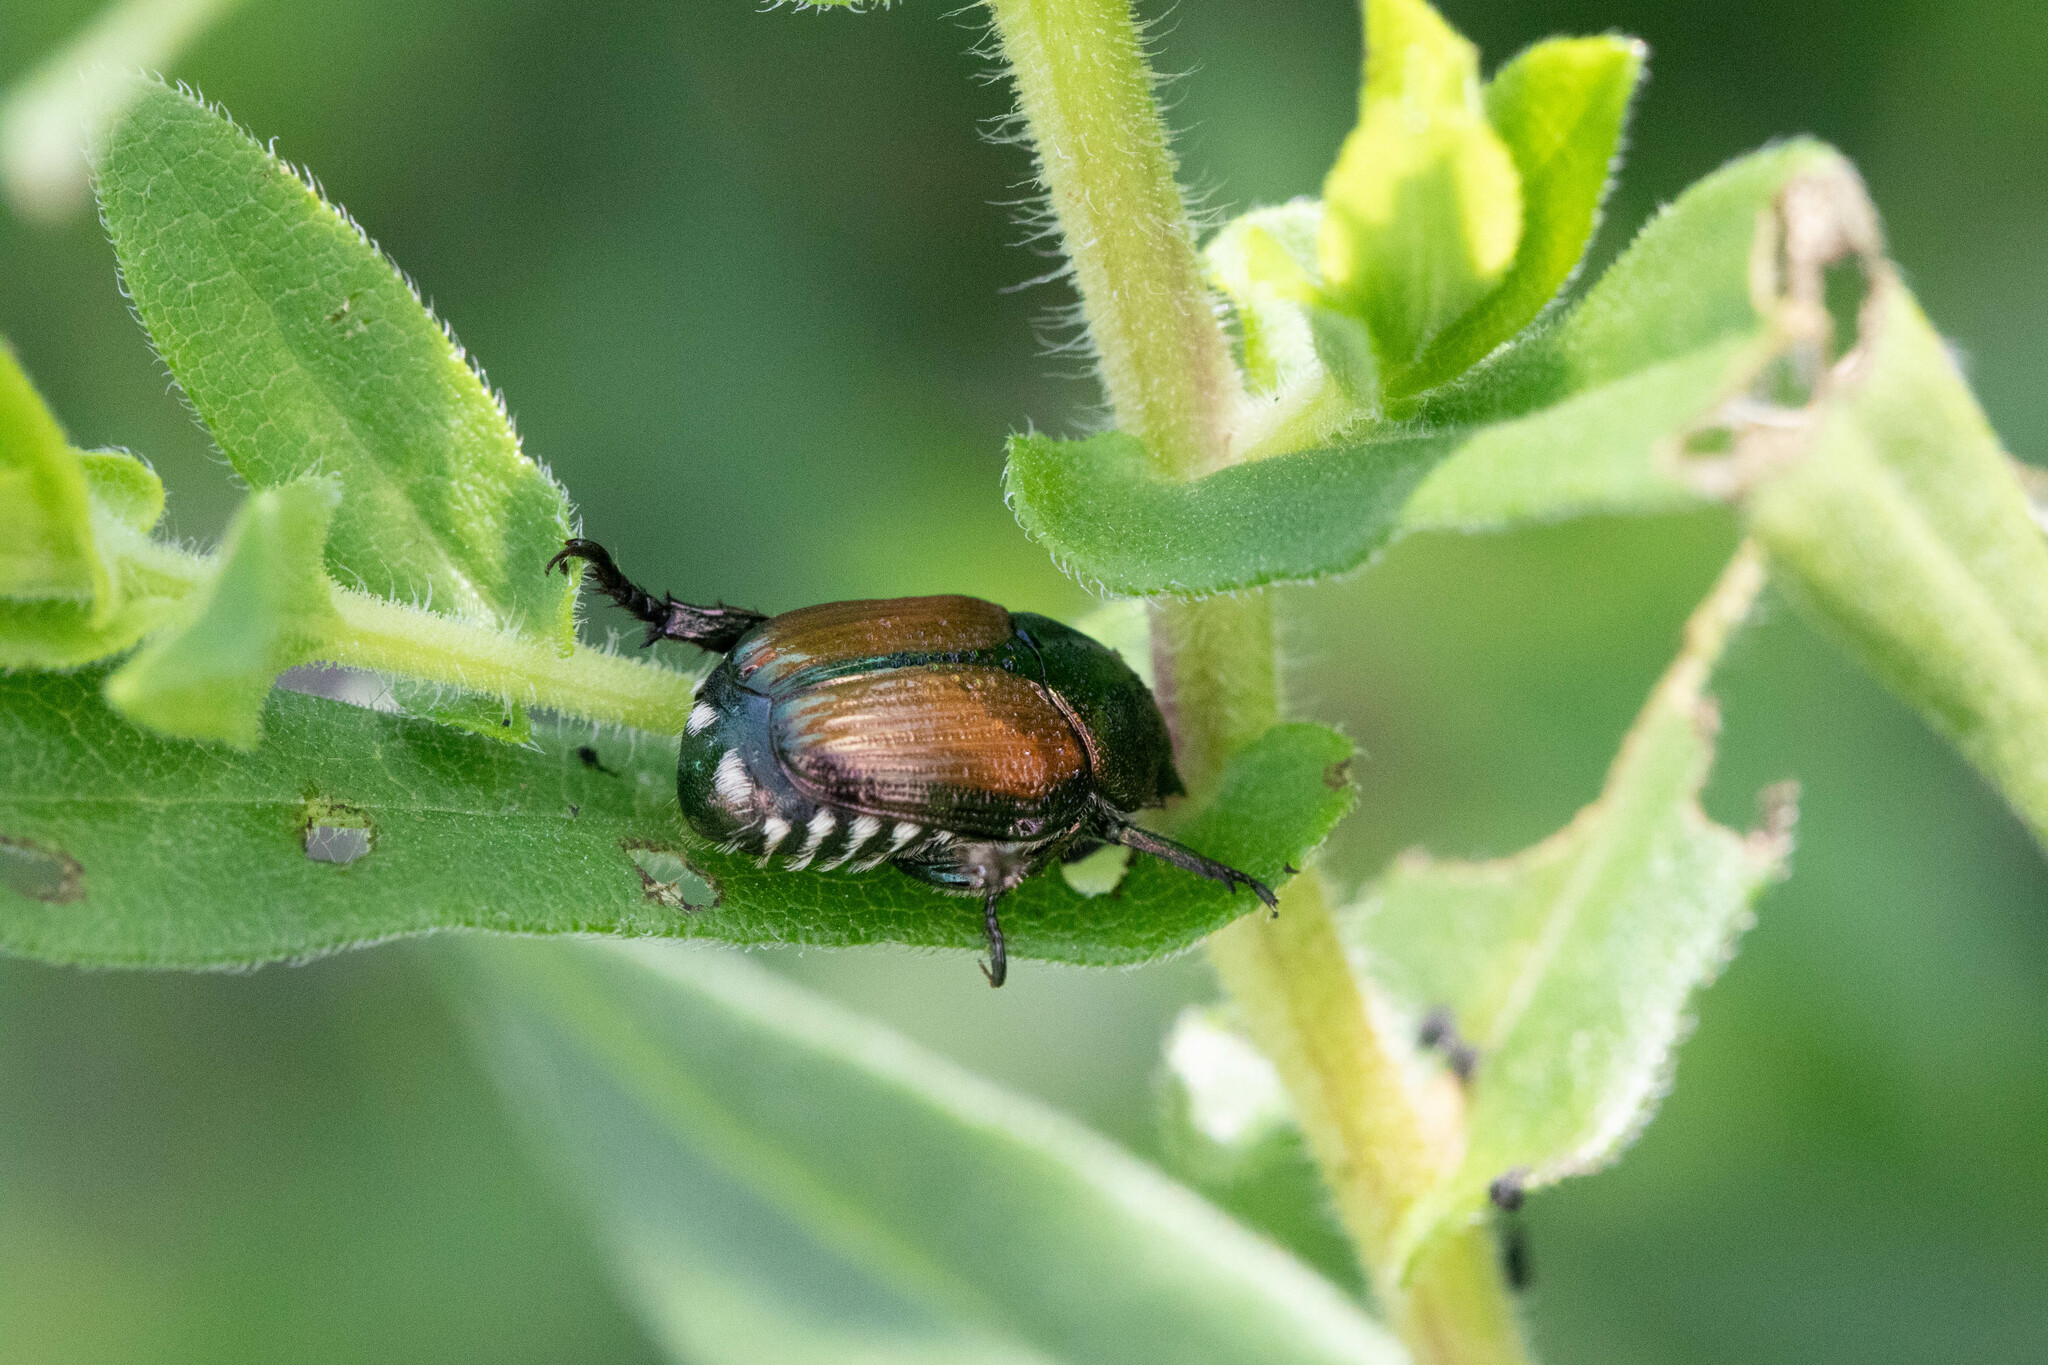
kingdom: Animalia
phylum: Arthropoda
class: Insecta
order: Coleoptera
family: Scarabaeidae
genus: Popillia
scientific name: Popillia japonica
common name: Japanese beetle
